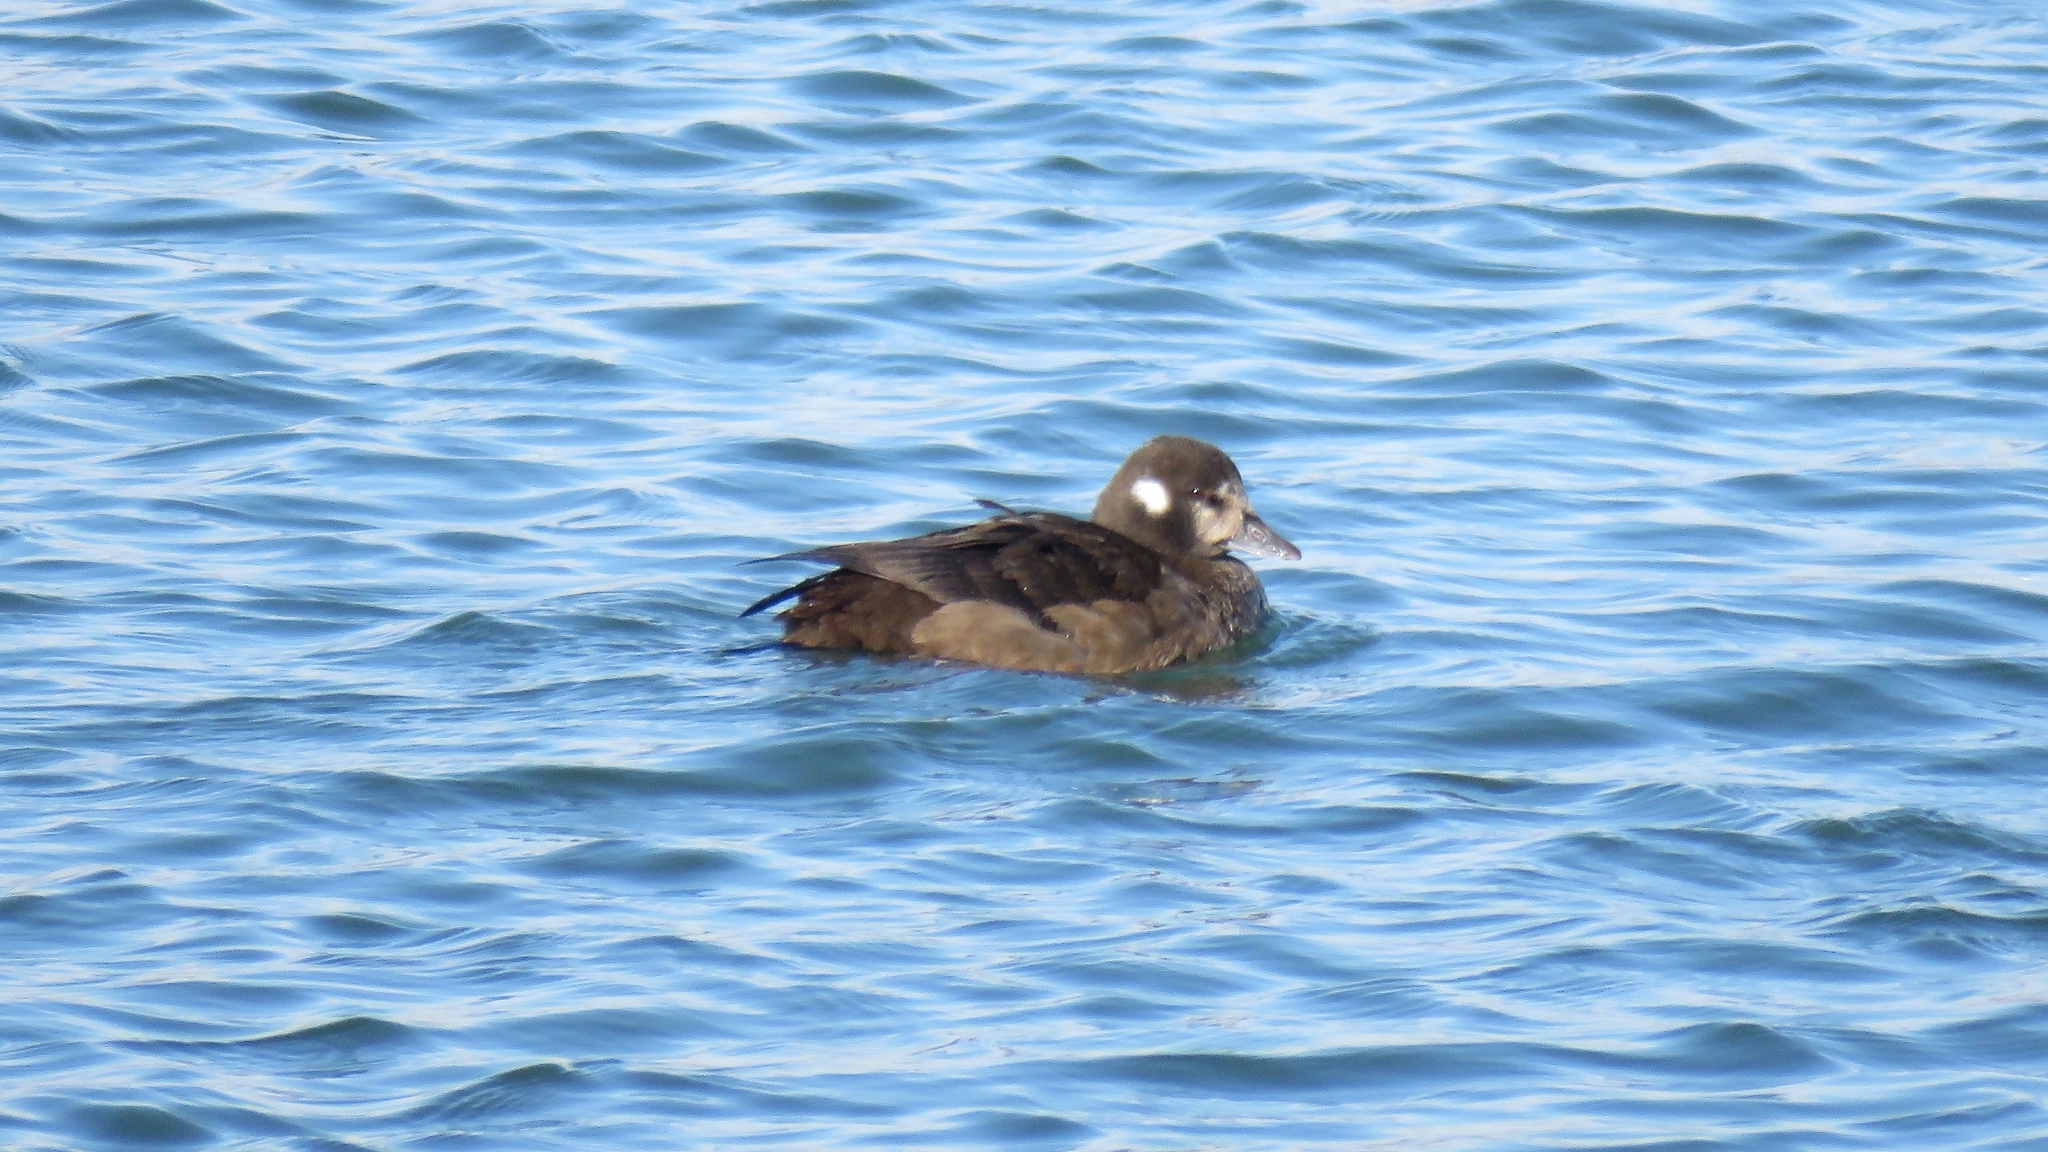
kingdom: Animalia
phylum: Chordata
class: Aves
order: Anseriformes
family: Anatidae
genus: Histrionicus
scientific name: Histrionicus histrionicus
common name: Harlequin duck
